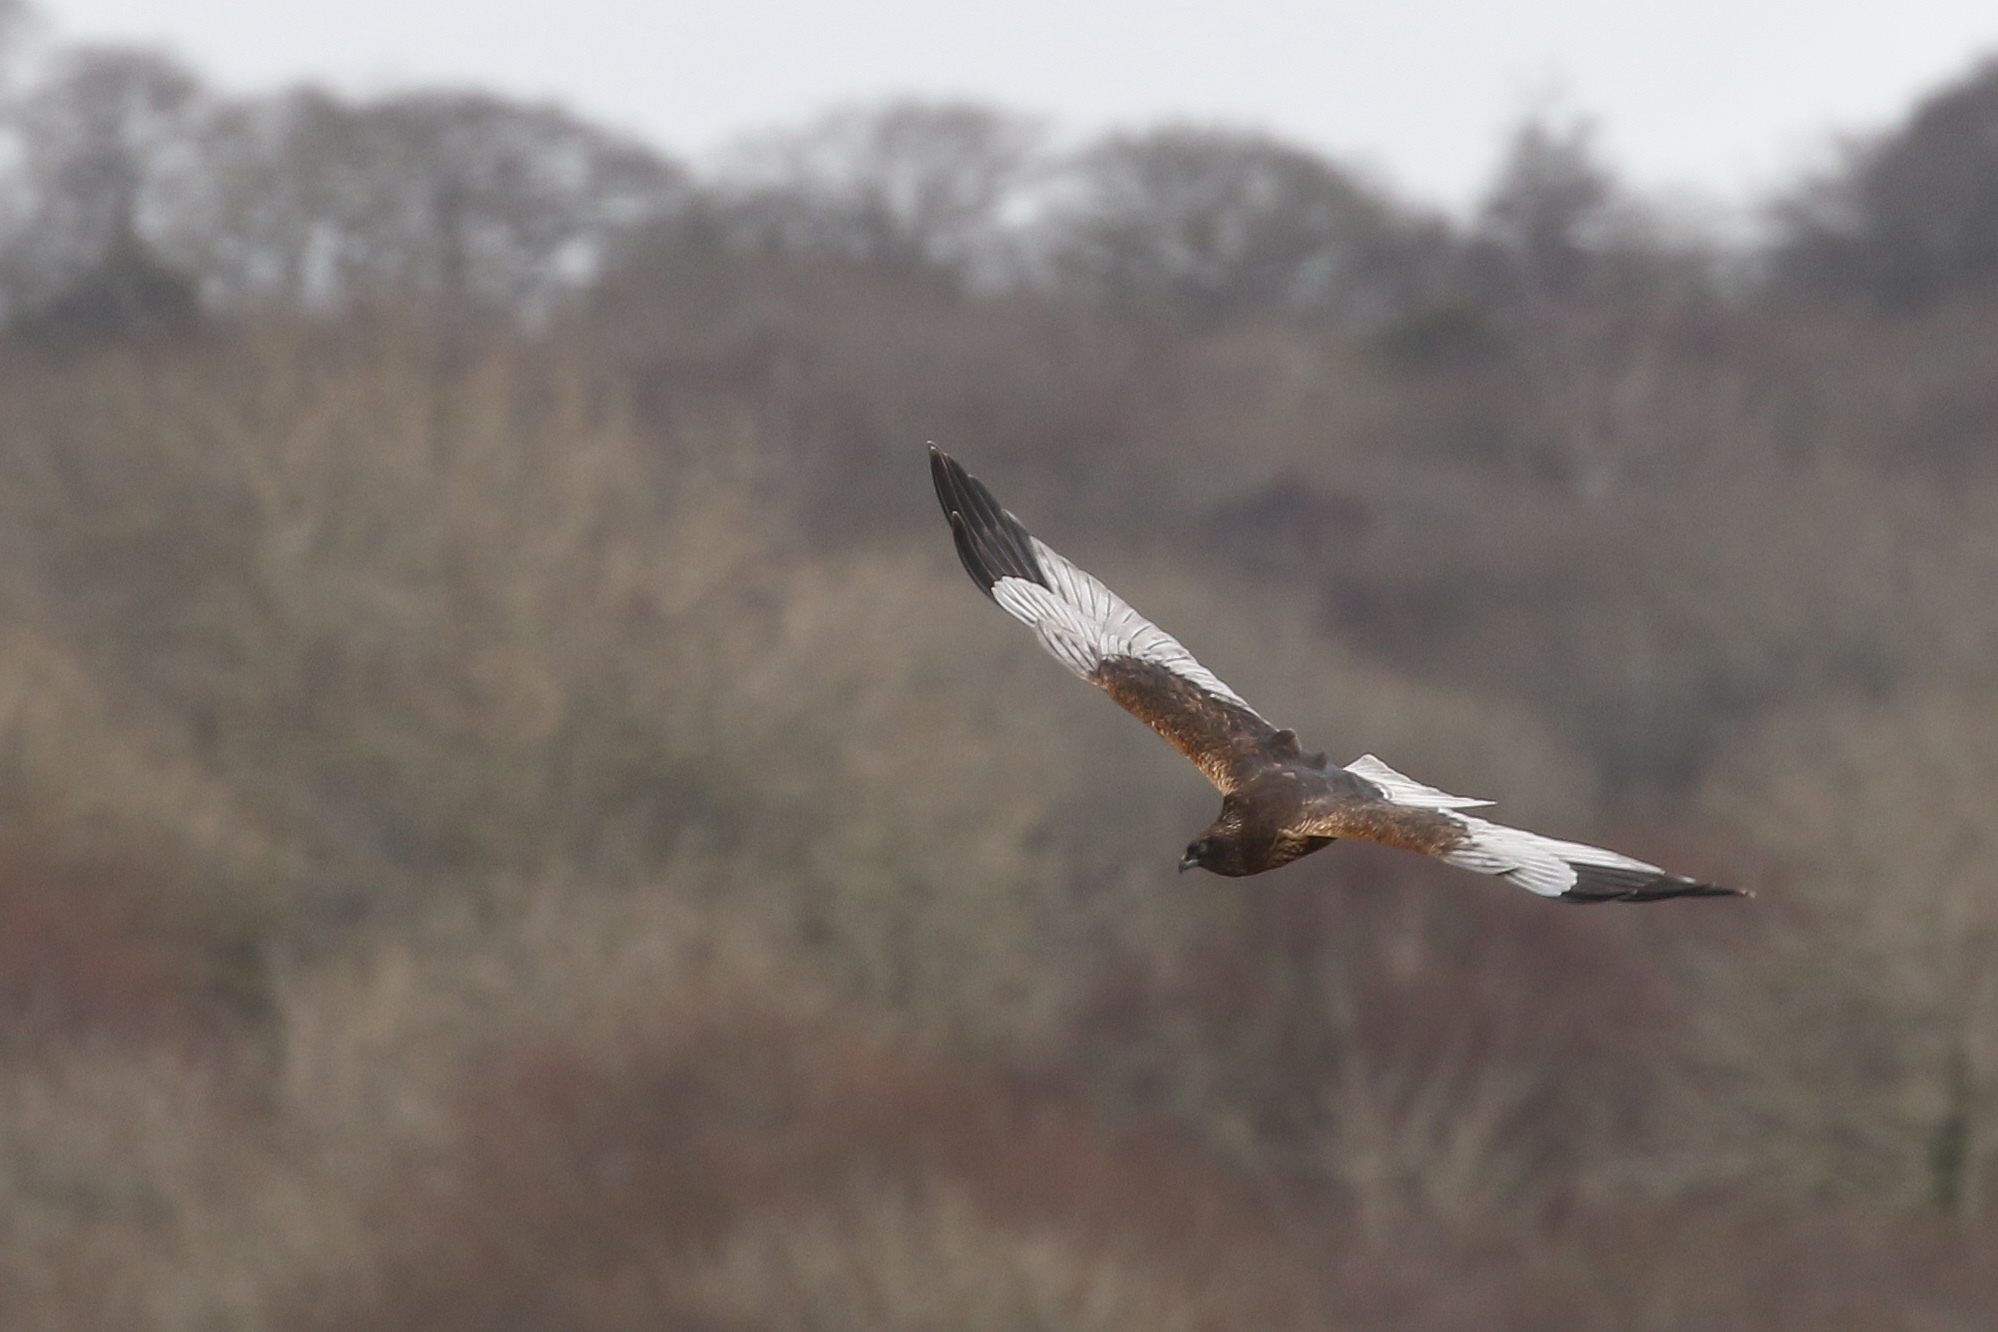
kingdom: Animalia
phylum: Chordata
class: Aves
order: Accipitriformes
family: Accipitridae
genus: Circus
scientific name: Circus aeruginosus
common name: Western marsh harrier
